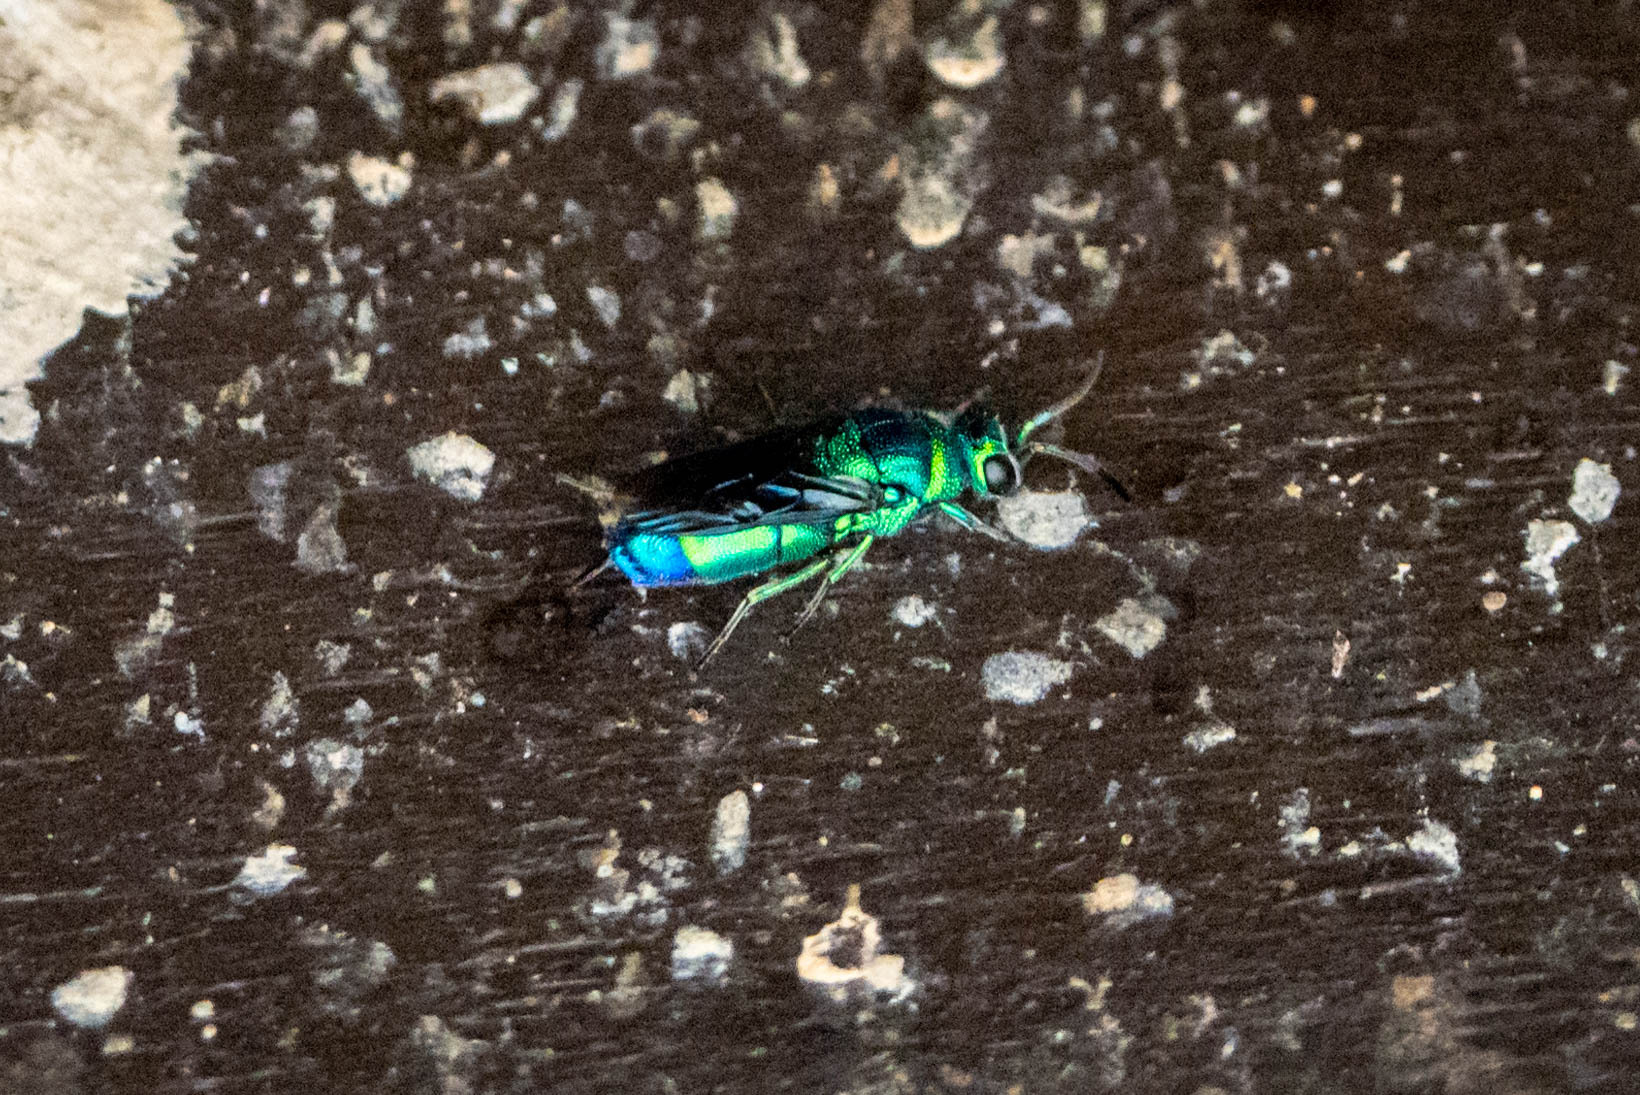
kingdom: Animalia
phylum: Arthropoda
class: Insecta
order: Hymenoptera
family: Chrysididae
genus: Chrysis
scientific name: Chrysis angolensis
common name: Cuckoo wasp
